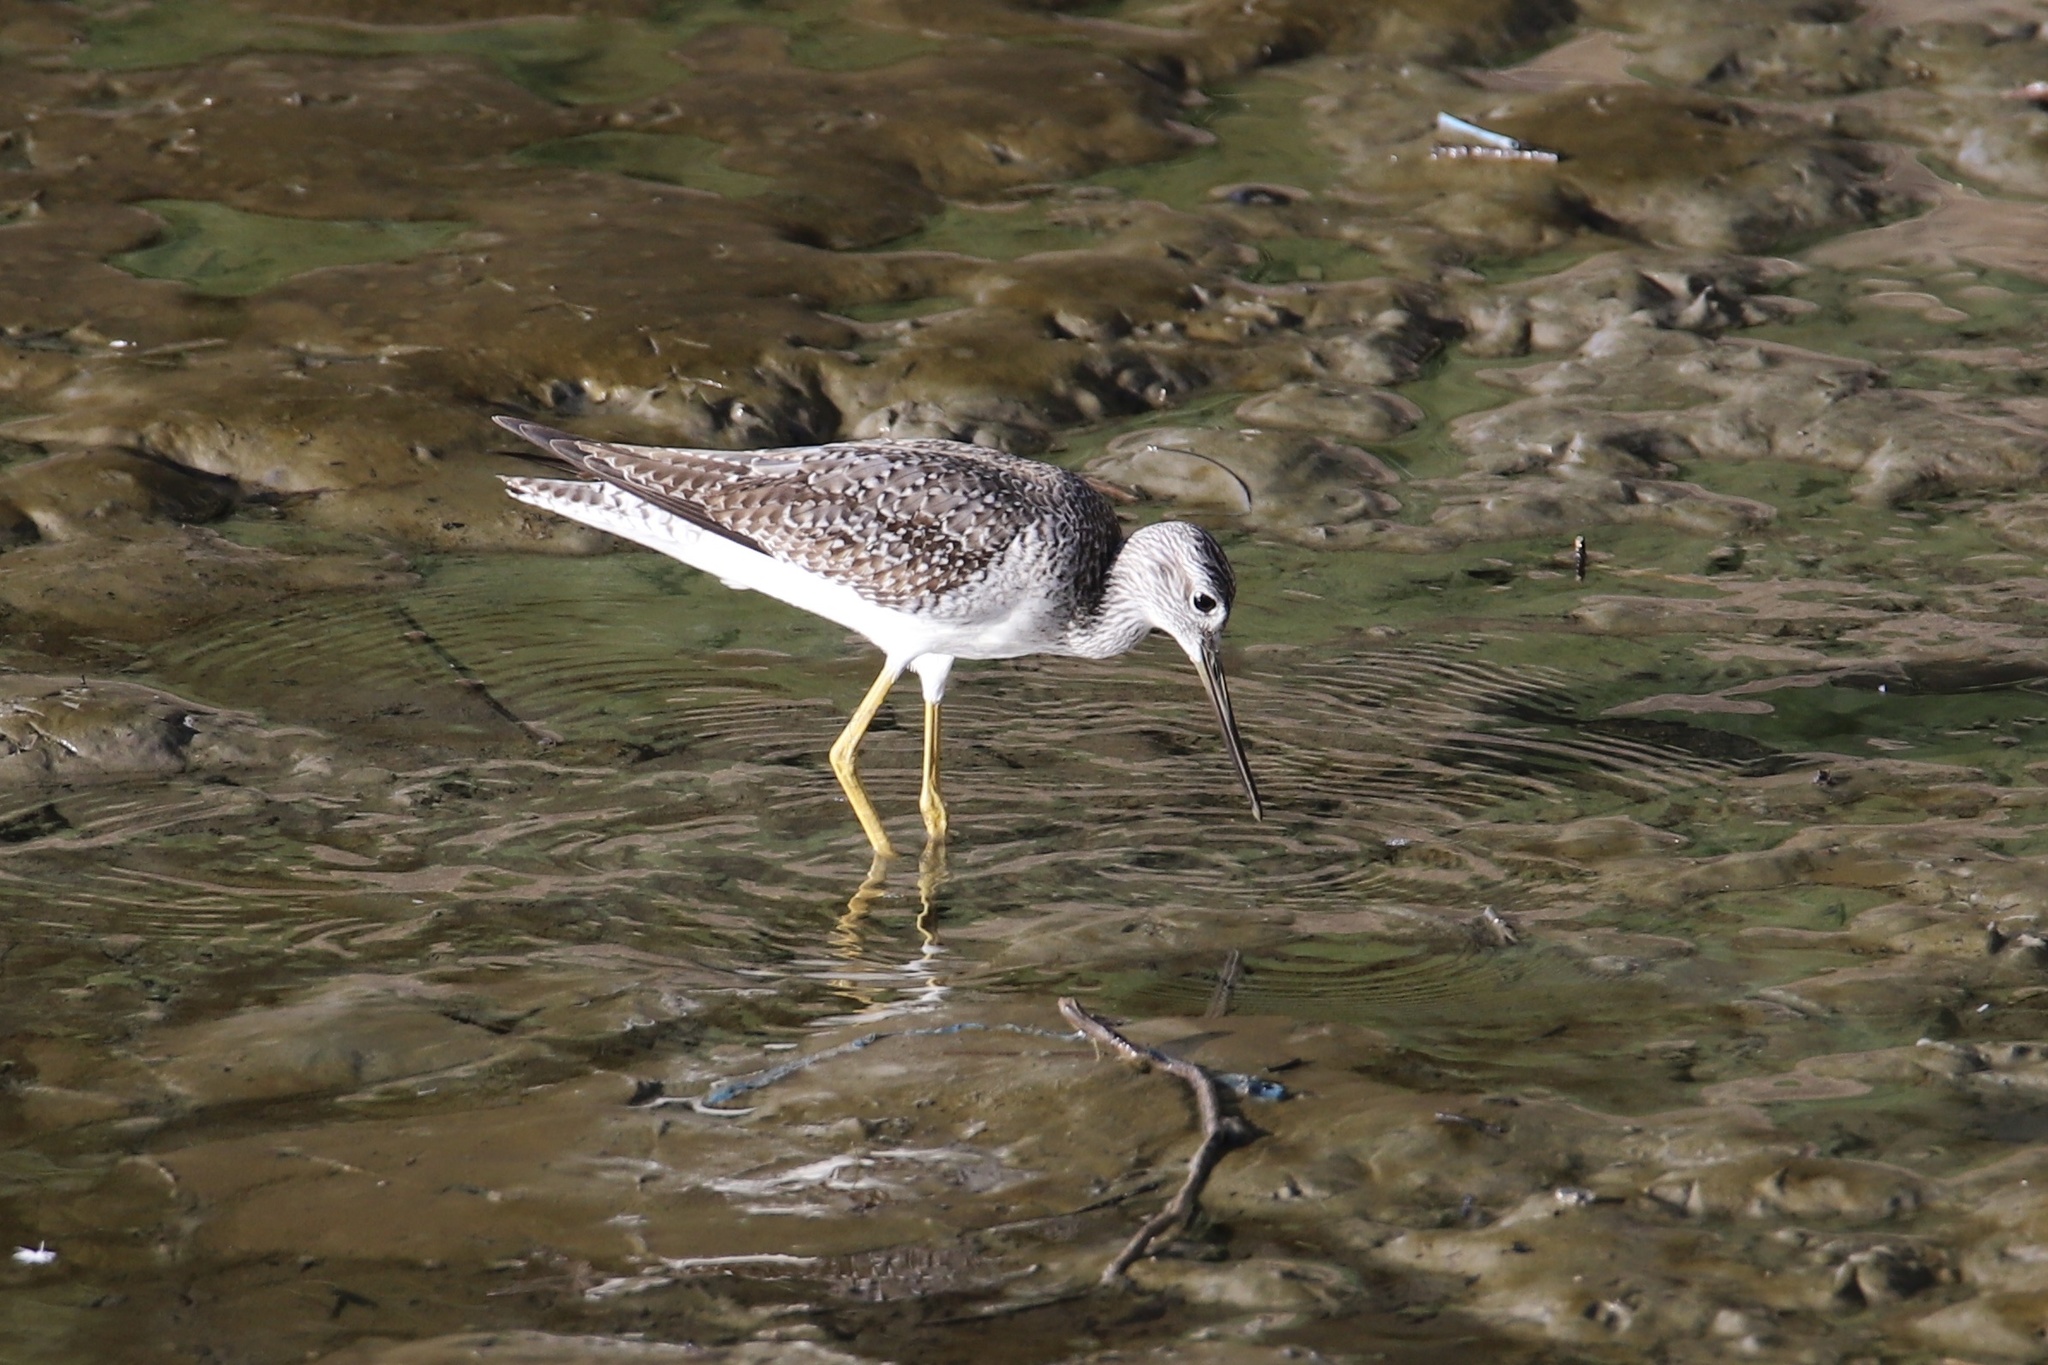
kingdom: Animalia
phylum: Chordata
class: Aves
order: Charadriiformes
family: Scolopacidae
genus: Tringa
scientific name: Tringa melanoleuca
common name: Greater yellowlegs
